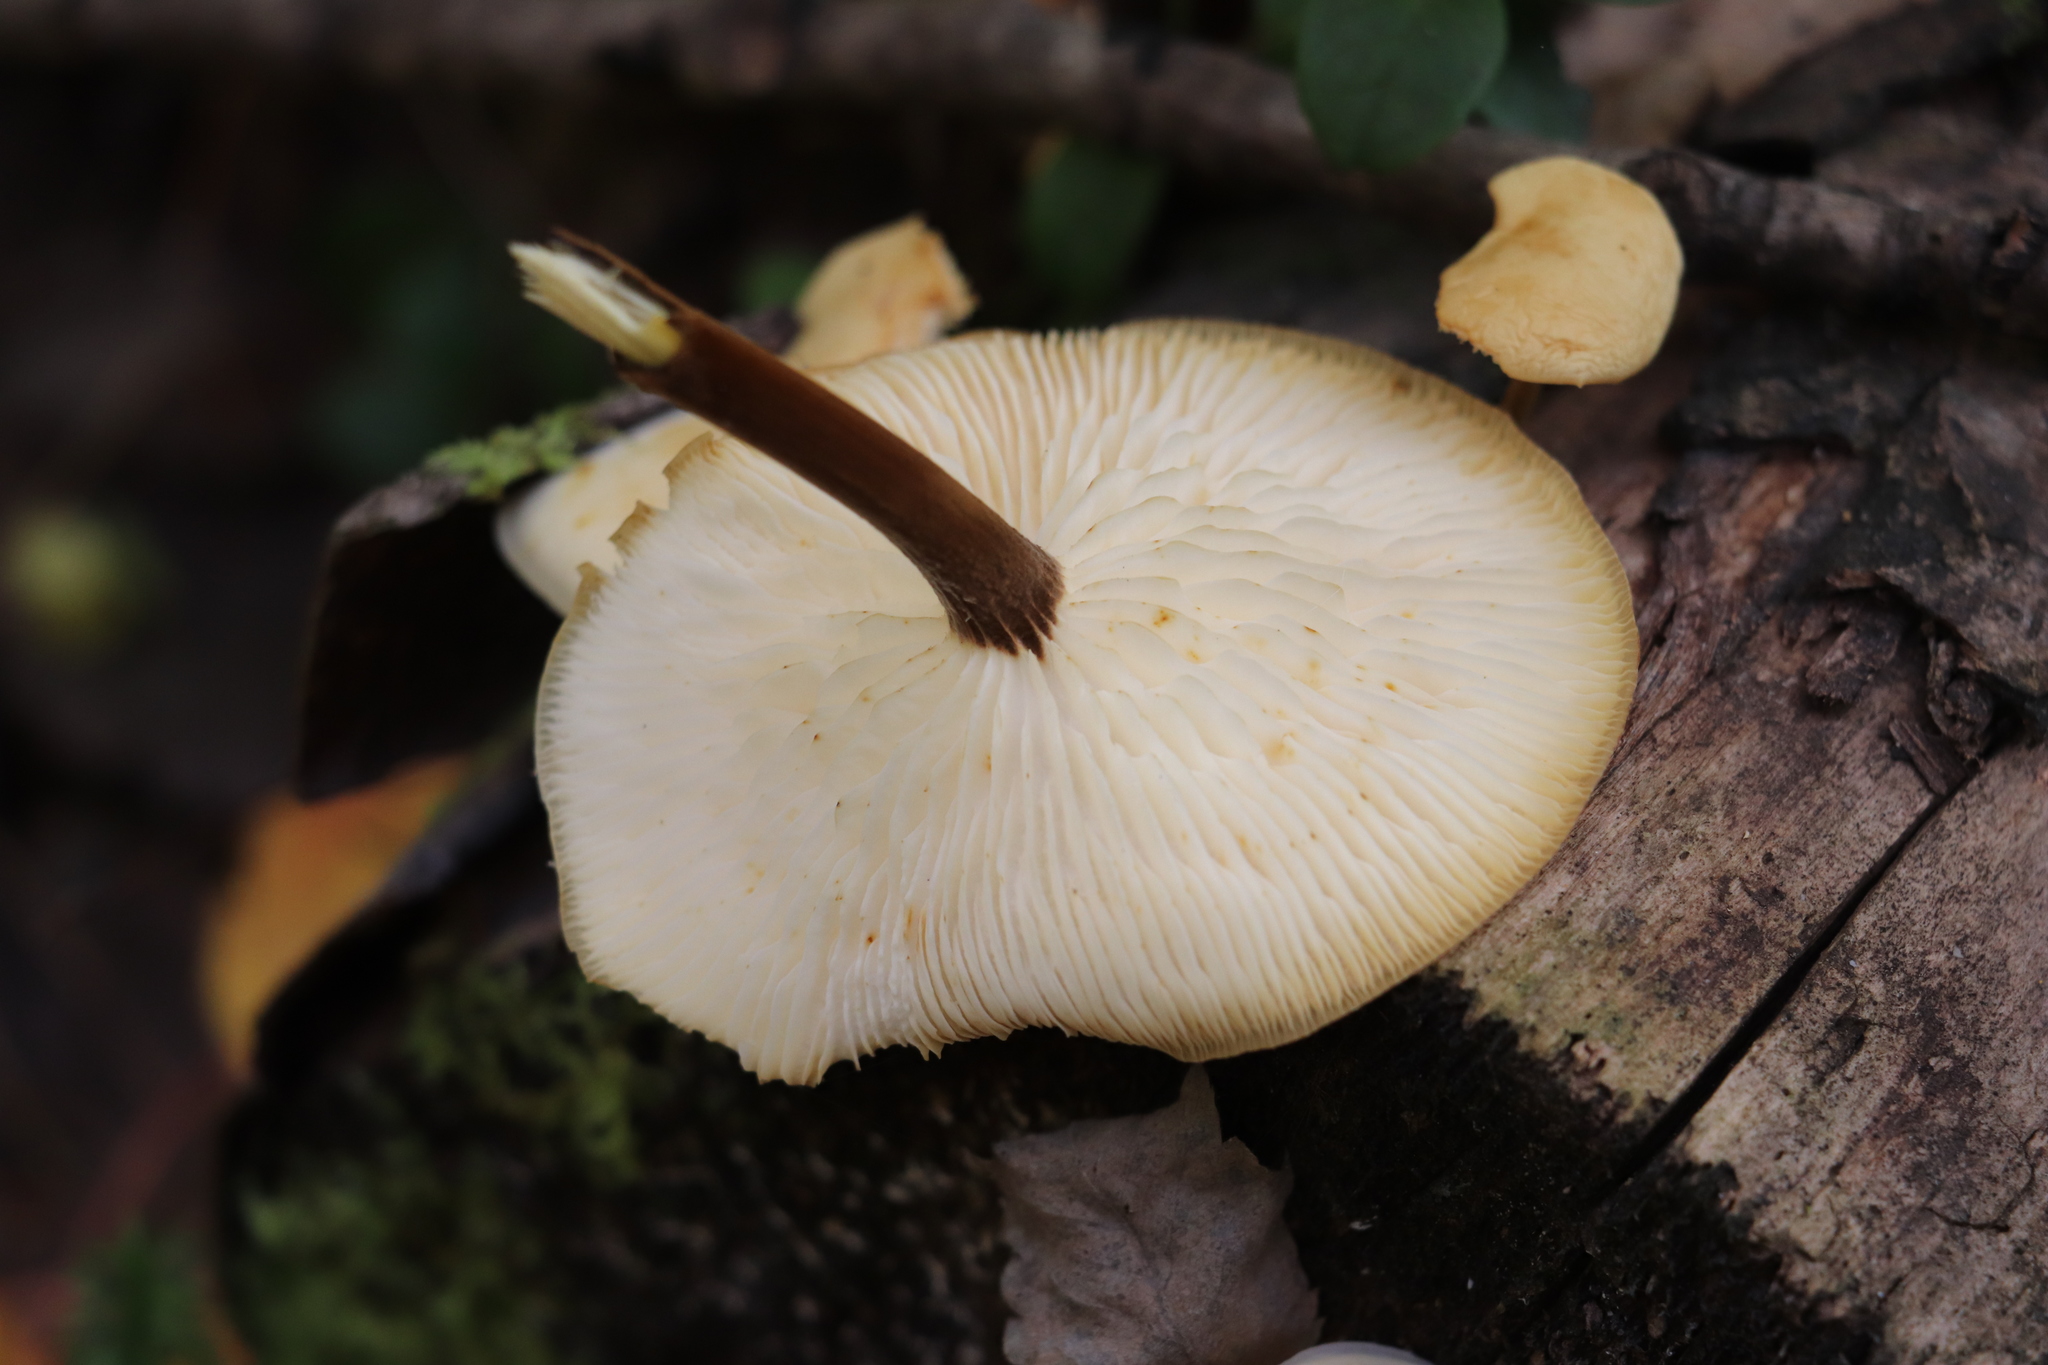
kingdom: Fungi
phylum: Basidiomycota
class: Agaricomycetes
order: Agaricales
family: Physalacriaceae
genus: Flammulina
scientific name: Flammulina velutipes
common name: Velvet shank
